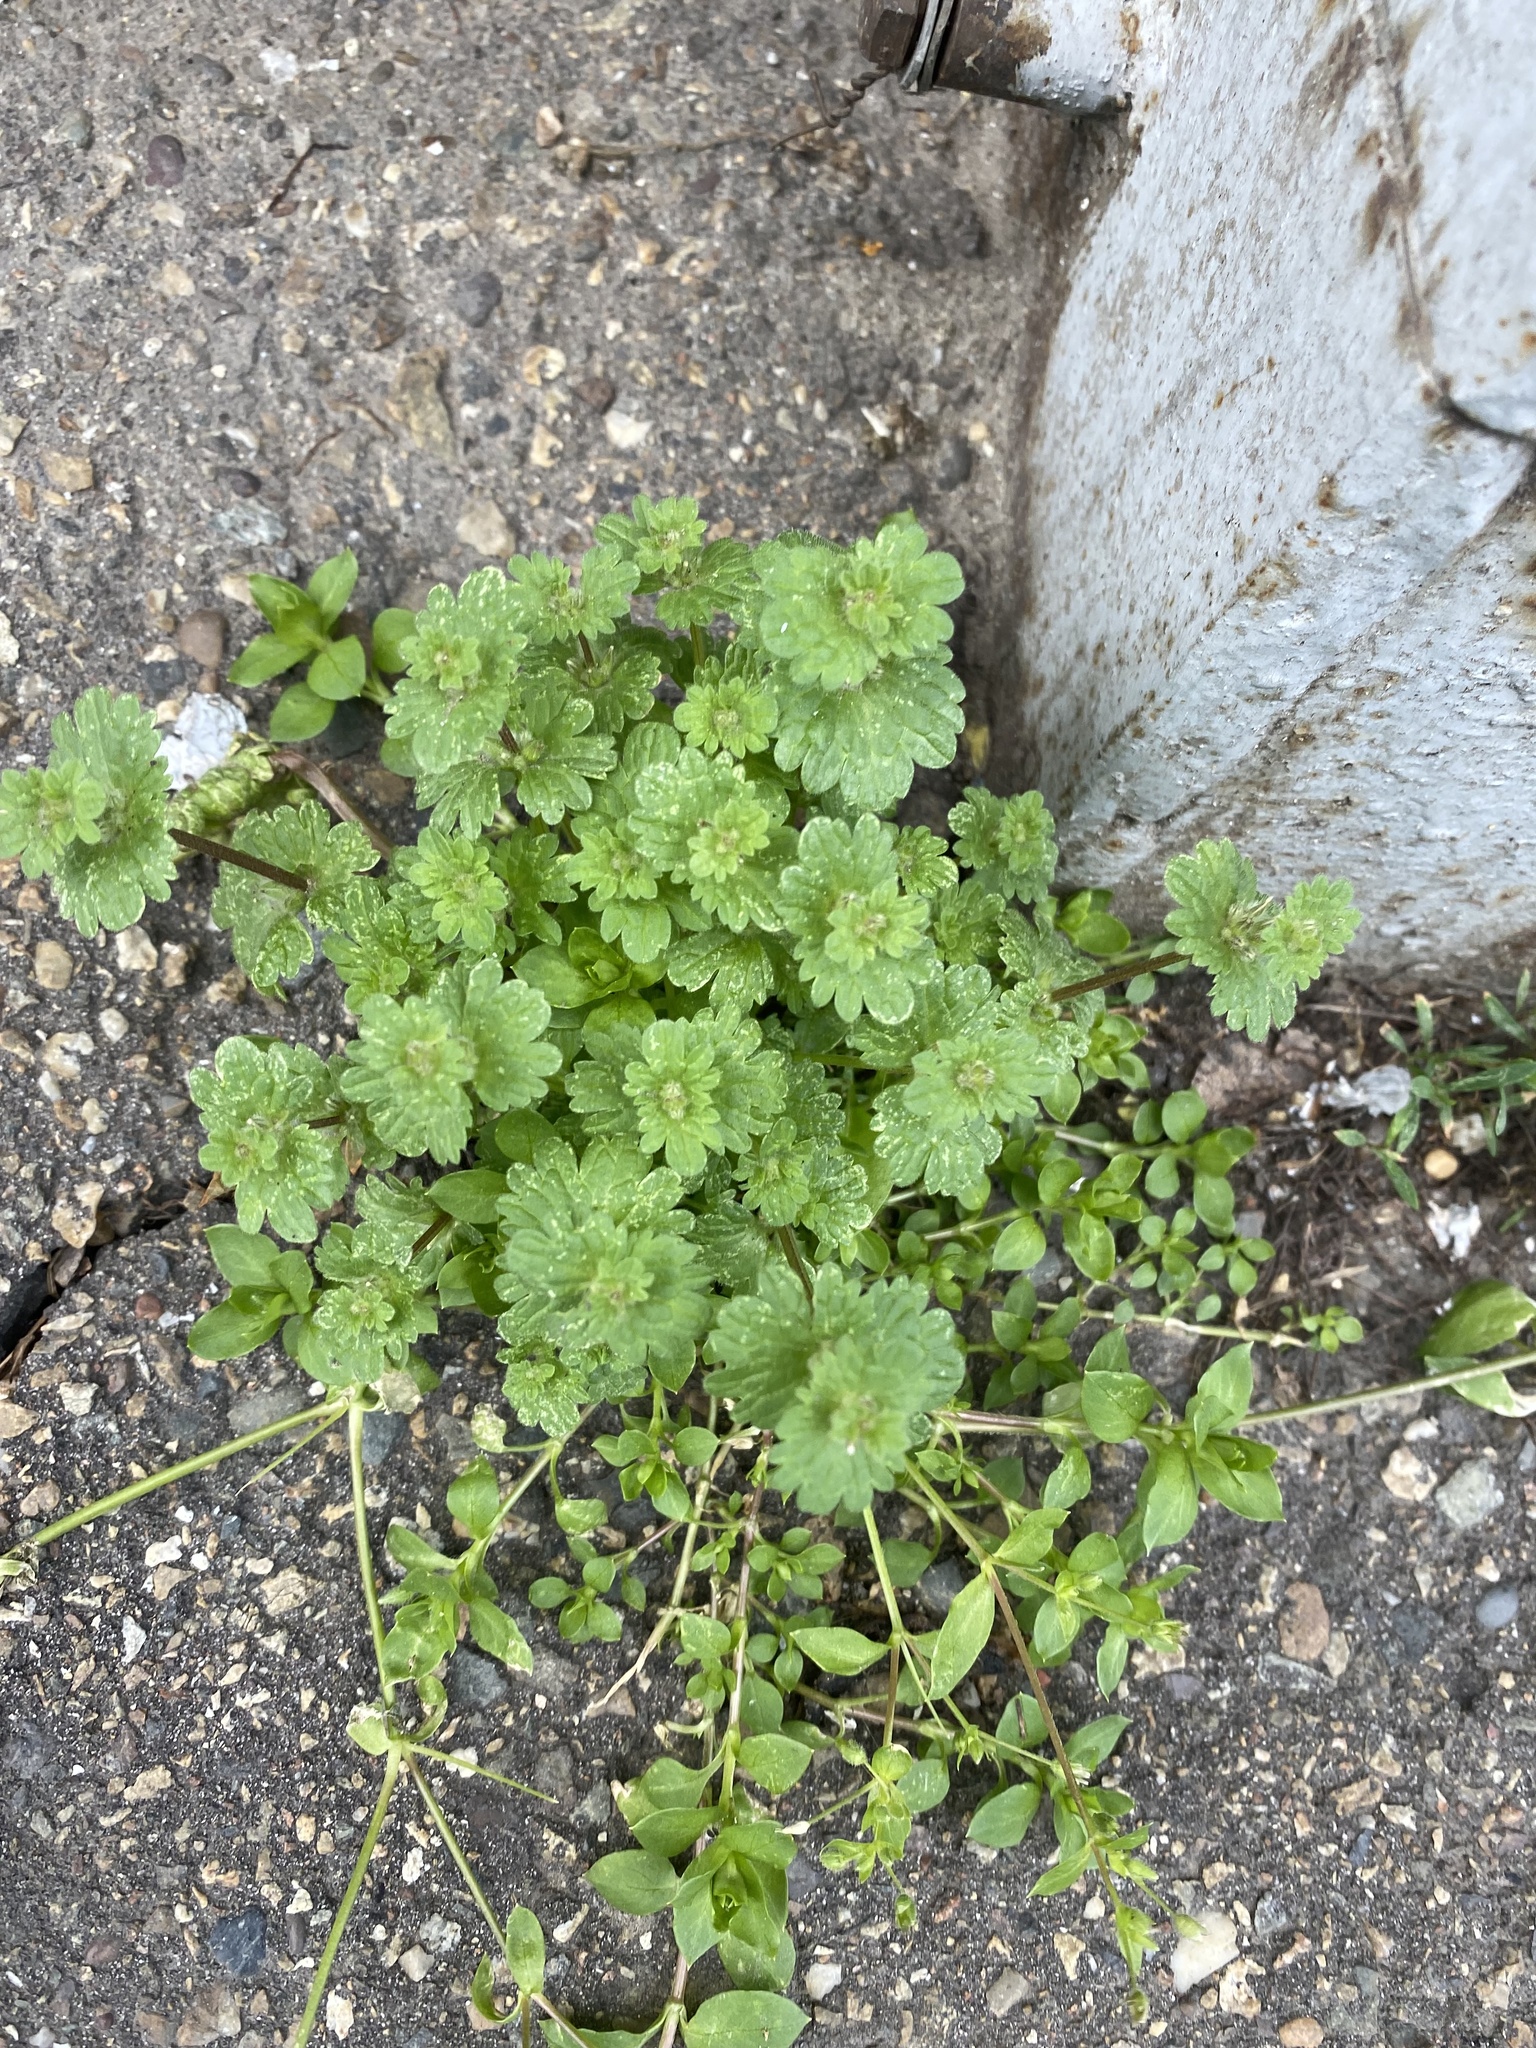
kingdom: Plantae
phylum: Tracheophyta
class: Magnoliopsida
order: Lamiales
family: Lamiaceae
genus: Lamium
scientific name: Lamium amplexicaule
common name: Henbit dead-nettle
